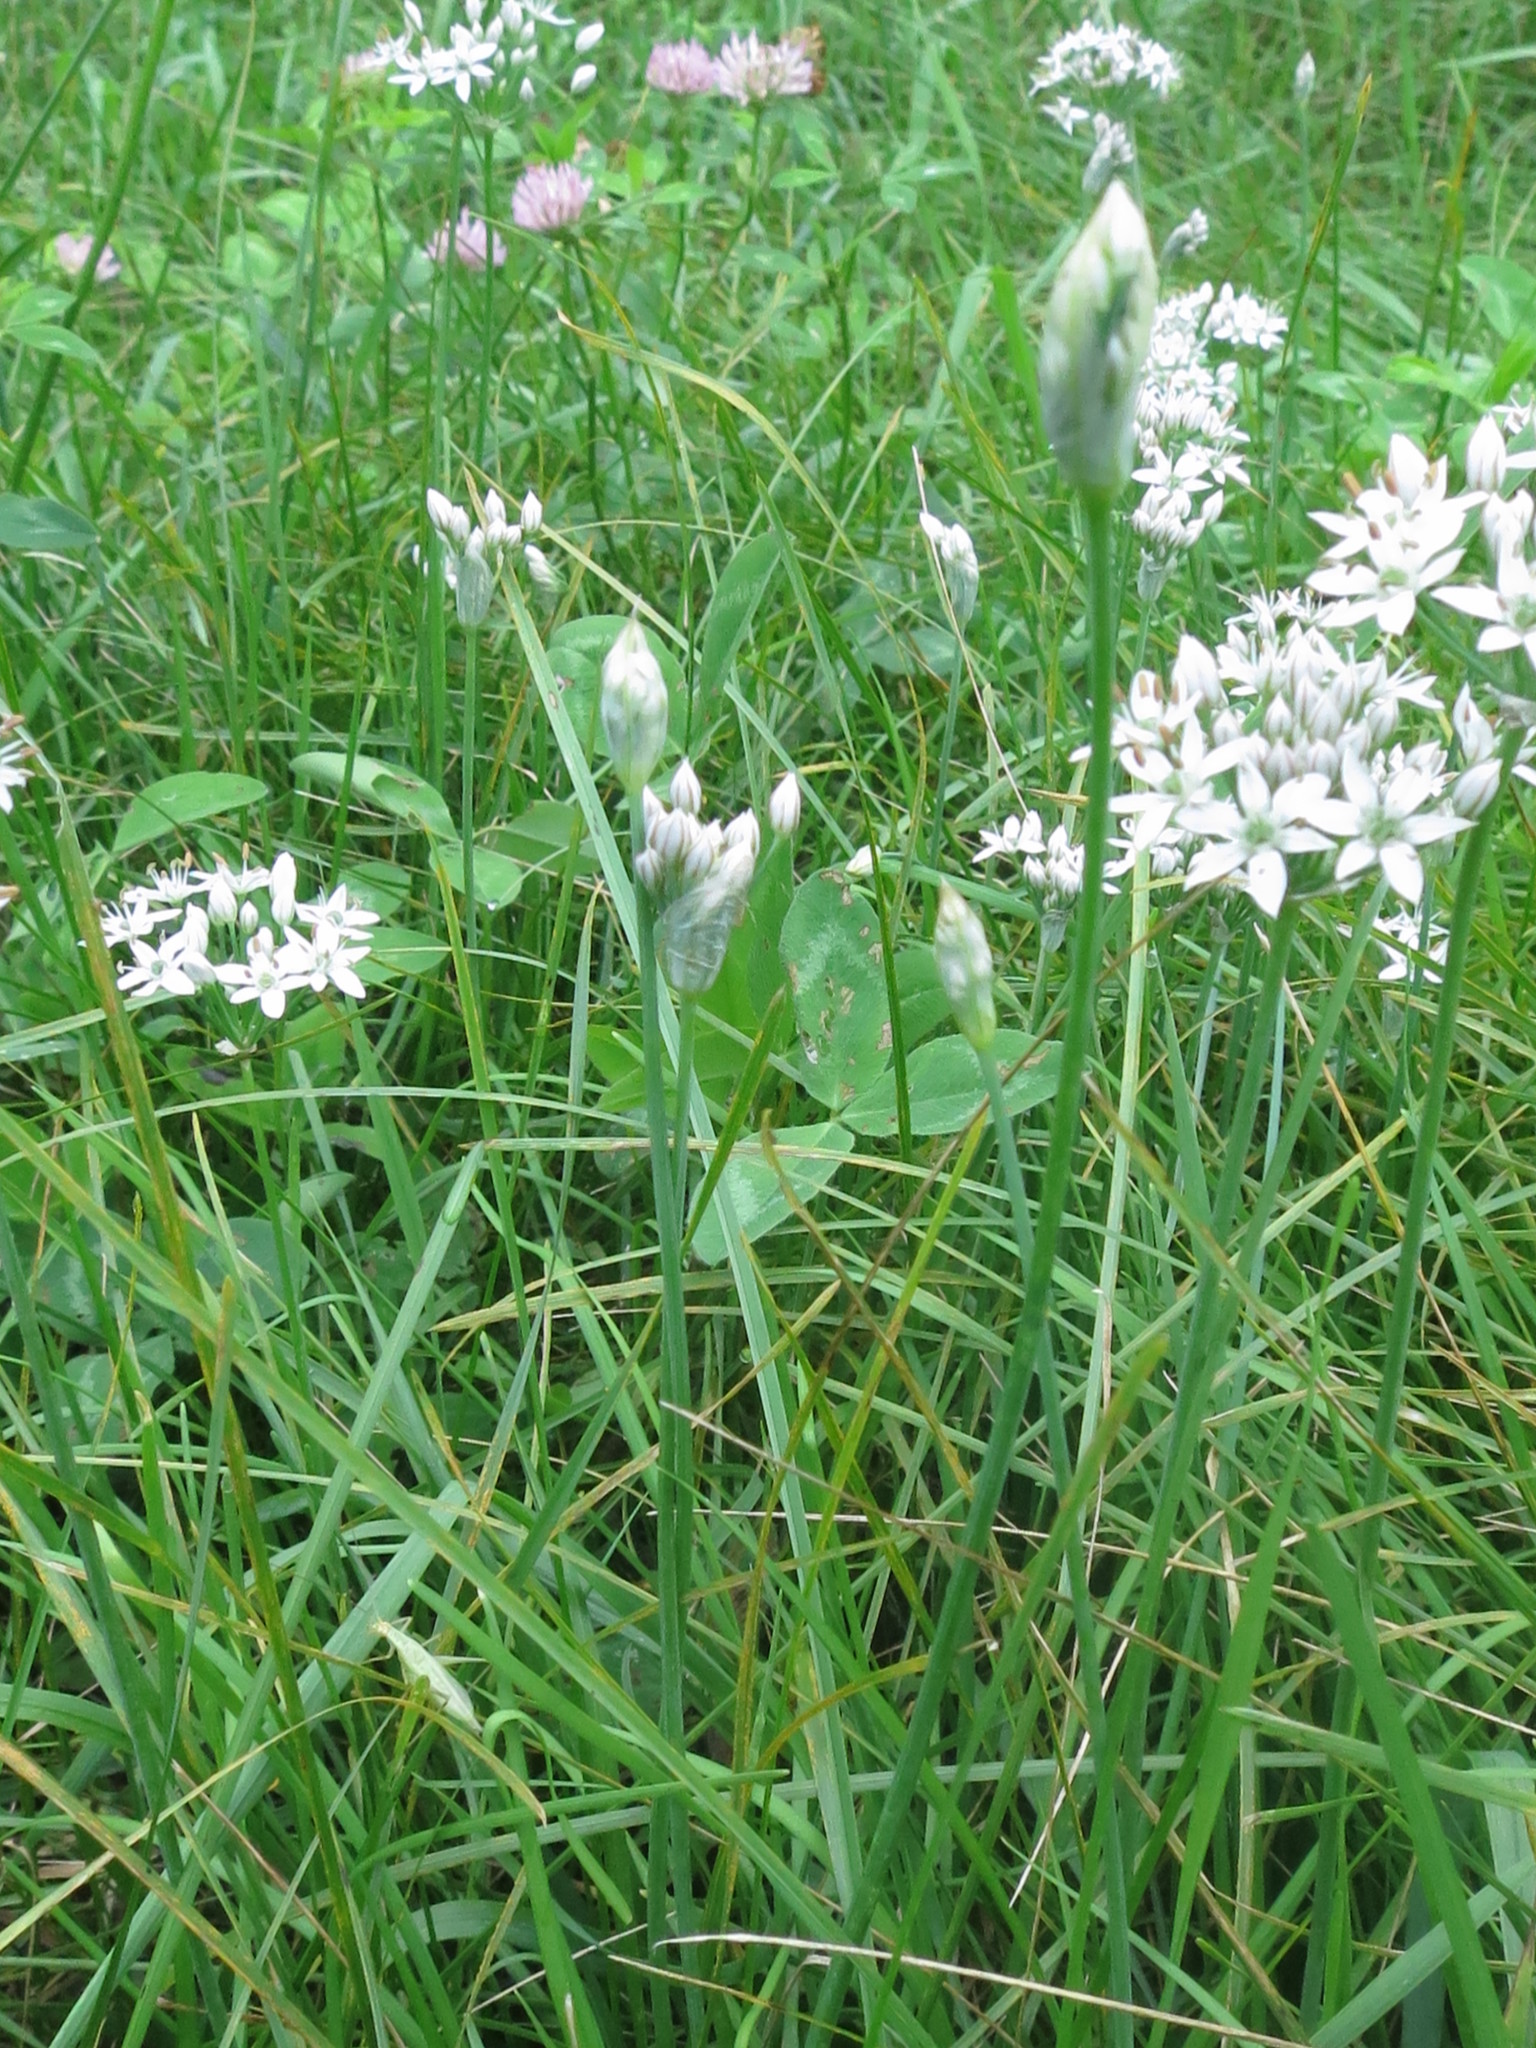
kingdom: Plantae
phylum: Tracheophyta
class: Liliopsida
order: Asparagales
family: Amaryllidaceae
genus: Allium
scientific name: Allium ramosum
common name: Fragrant garlic
